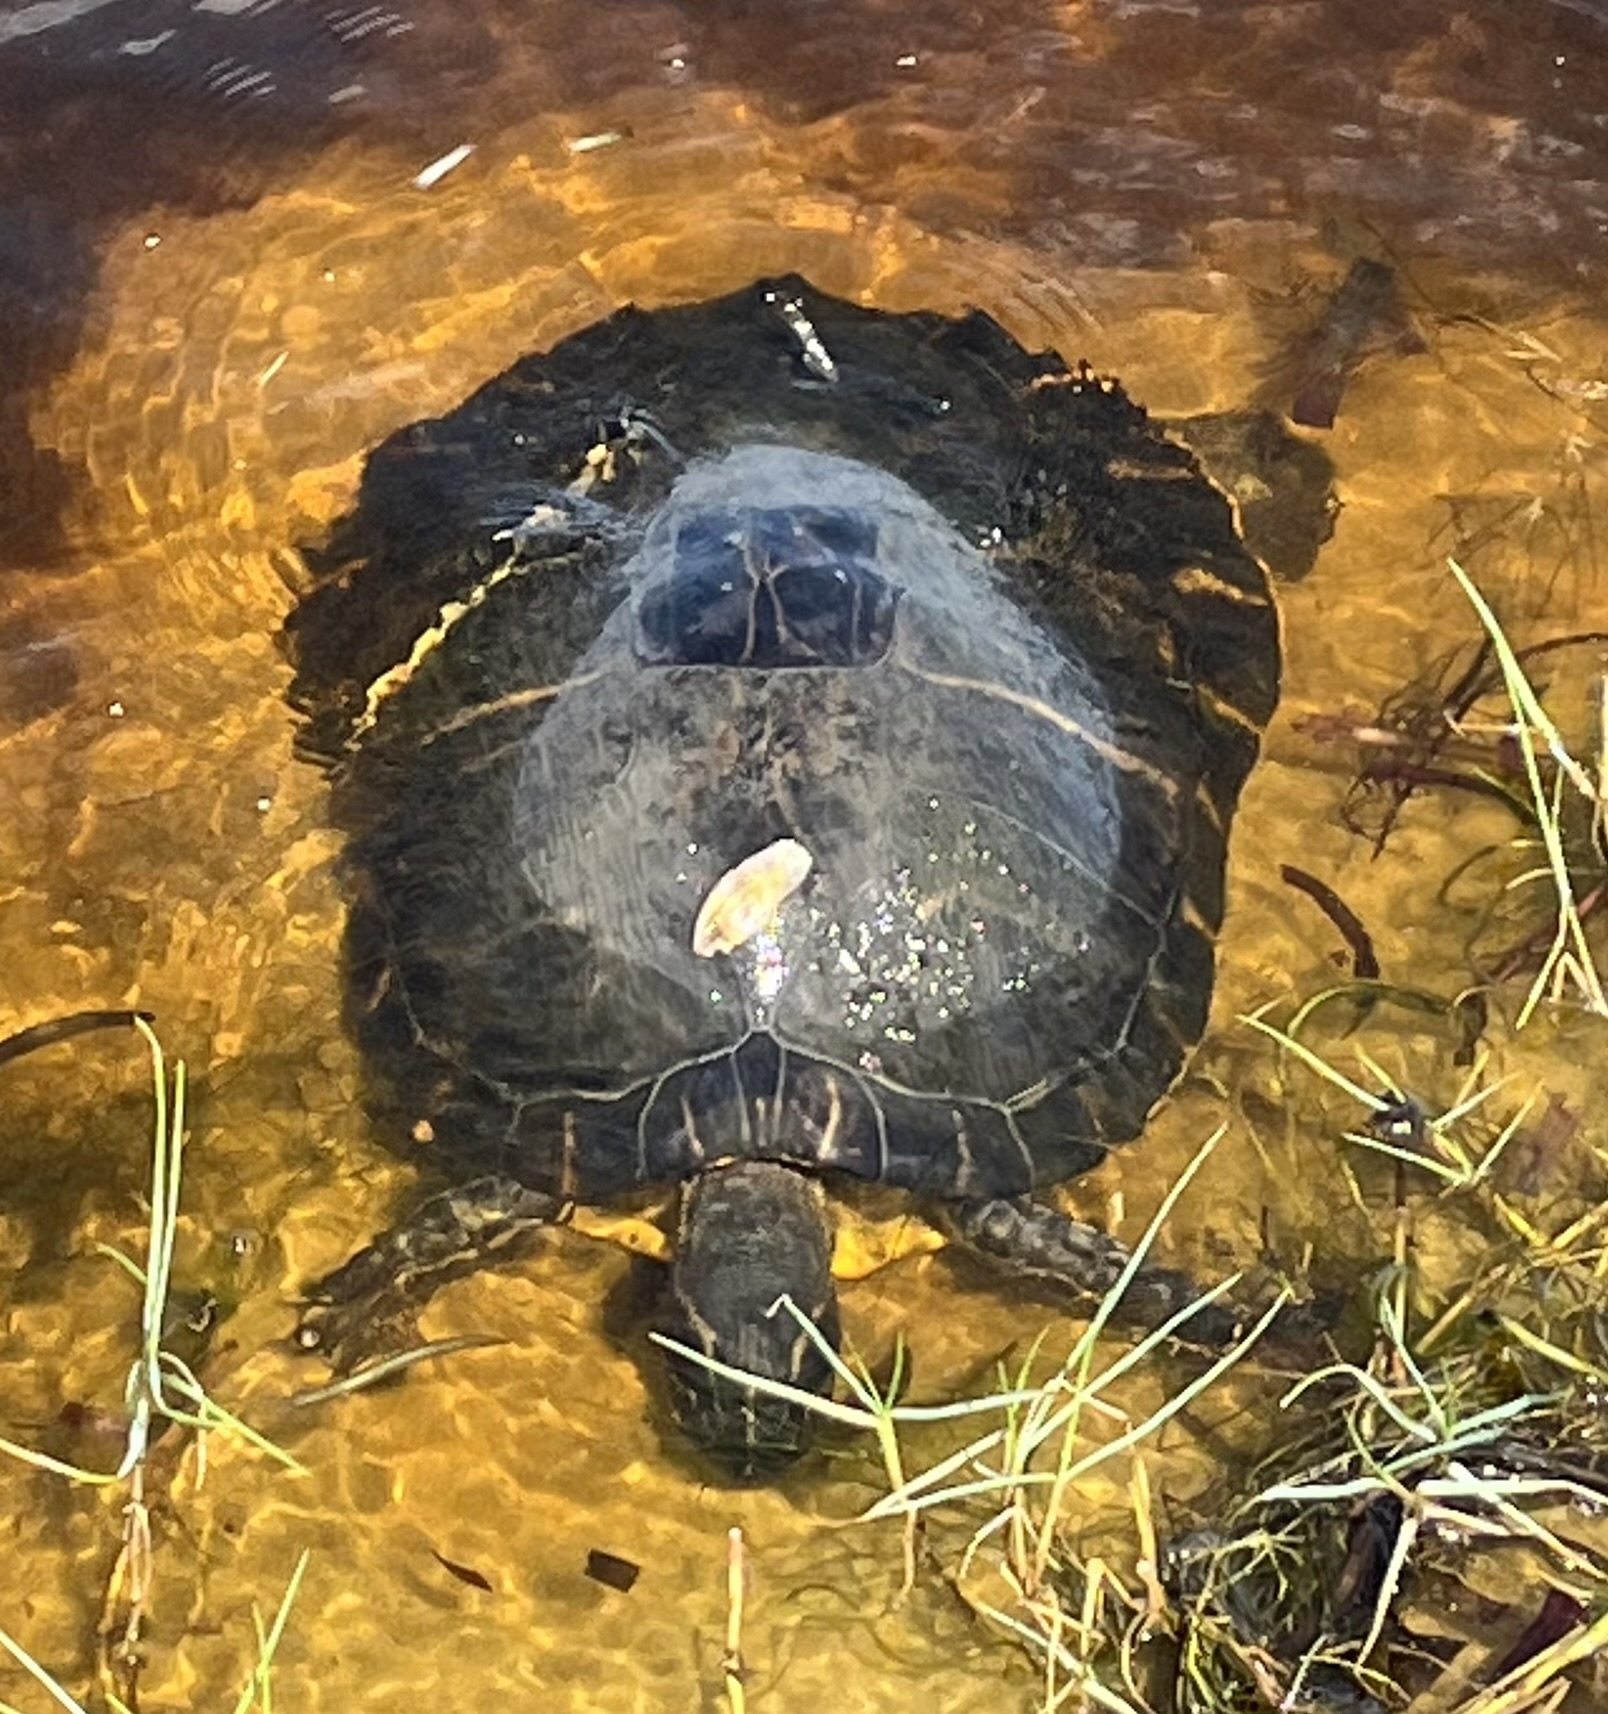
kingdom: Animalia
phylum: Chordata
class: Testudines
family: Emydidae
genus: Pseudemys
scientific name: Pseudemys concinna
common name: Eastern river cooter
